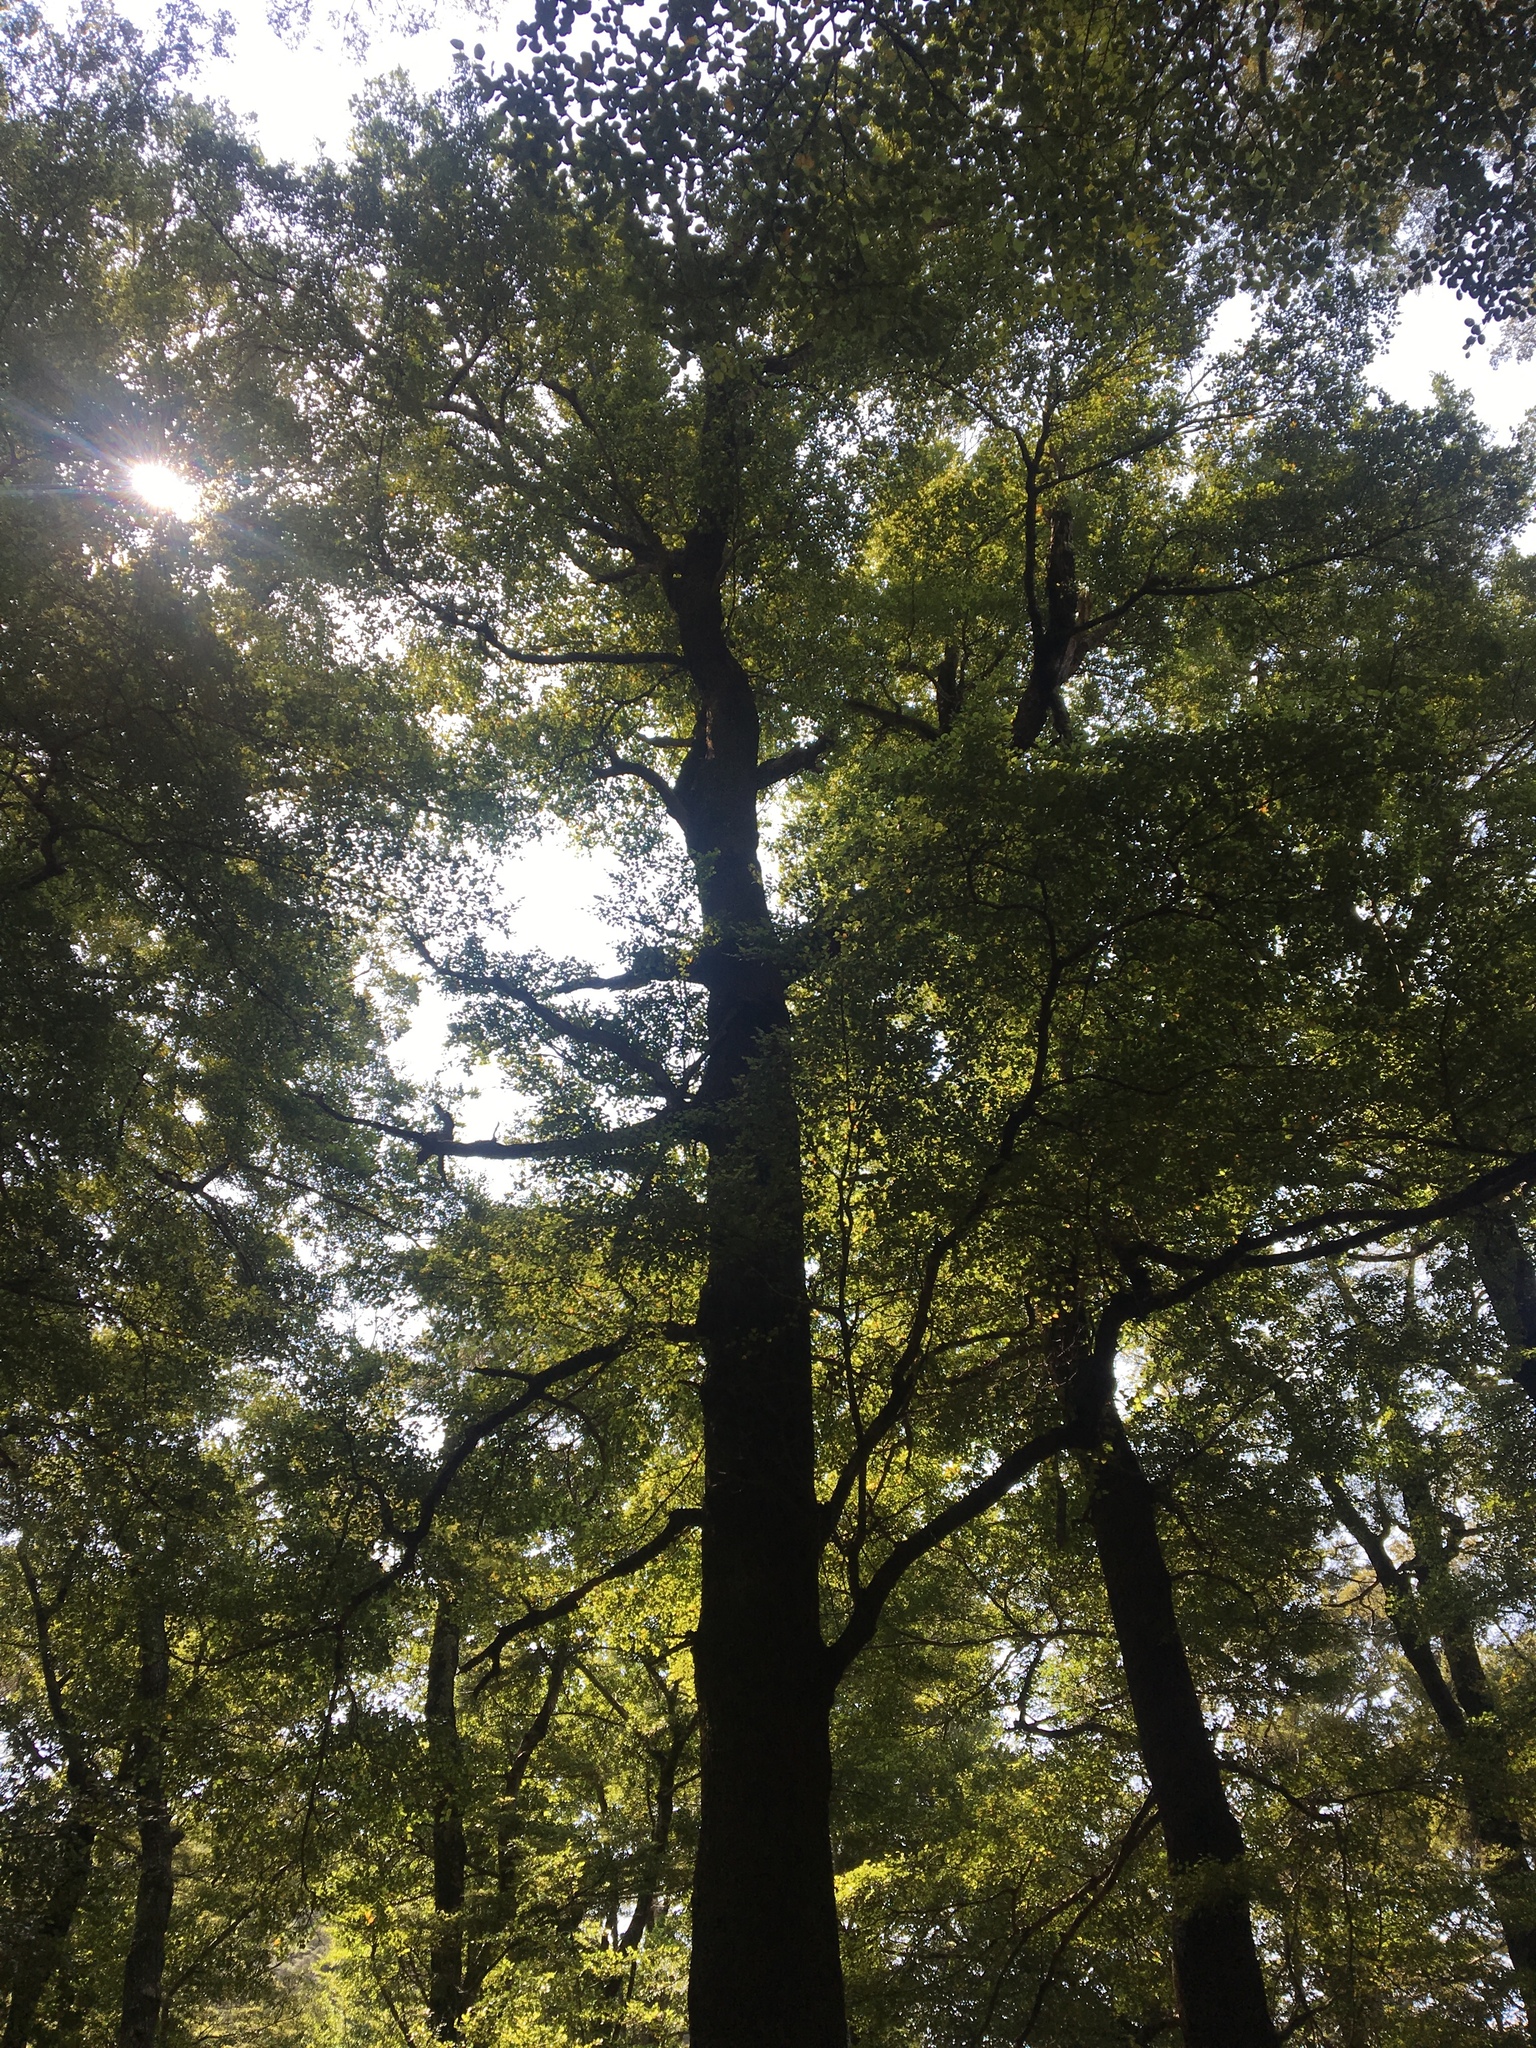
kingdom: Plantae
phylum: Tracheophyta
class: Magnoliopsida
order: Fagales
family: Nothofagaceae
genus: Nothofagus
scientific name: Nothofagus truncata
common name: Hard beech
